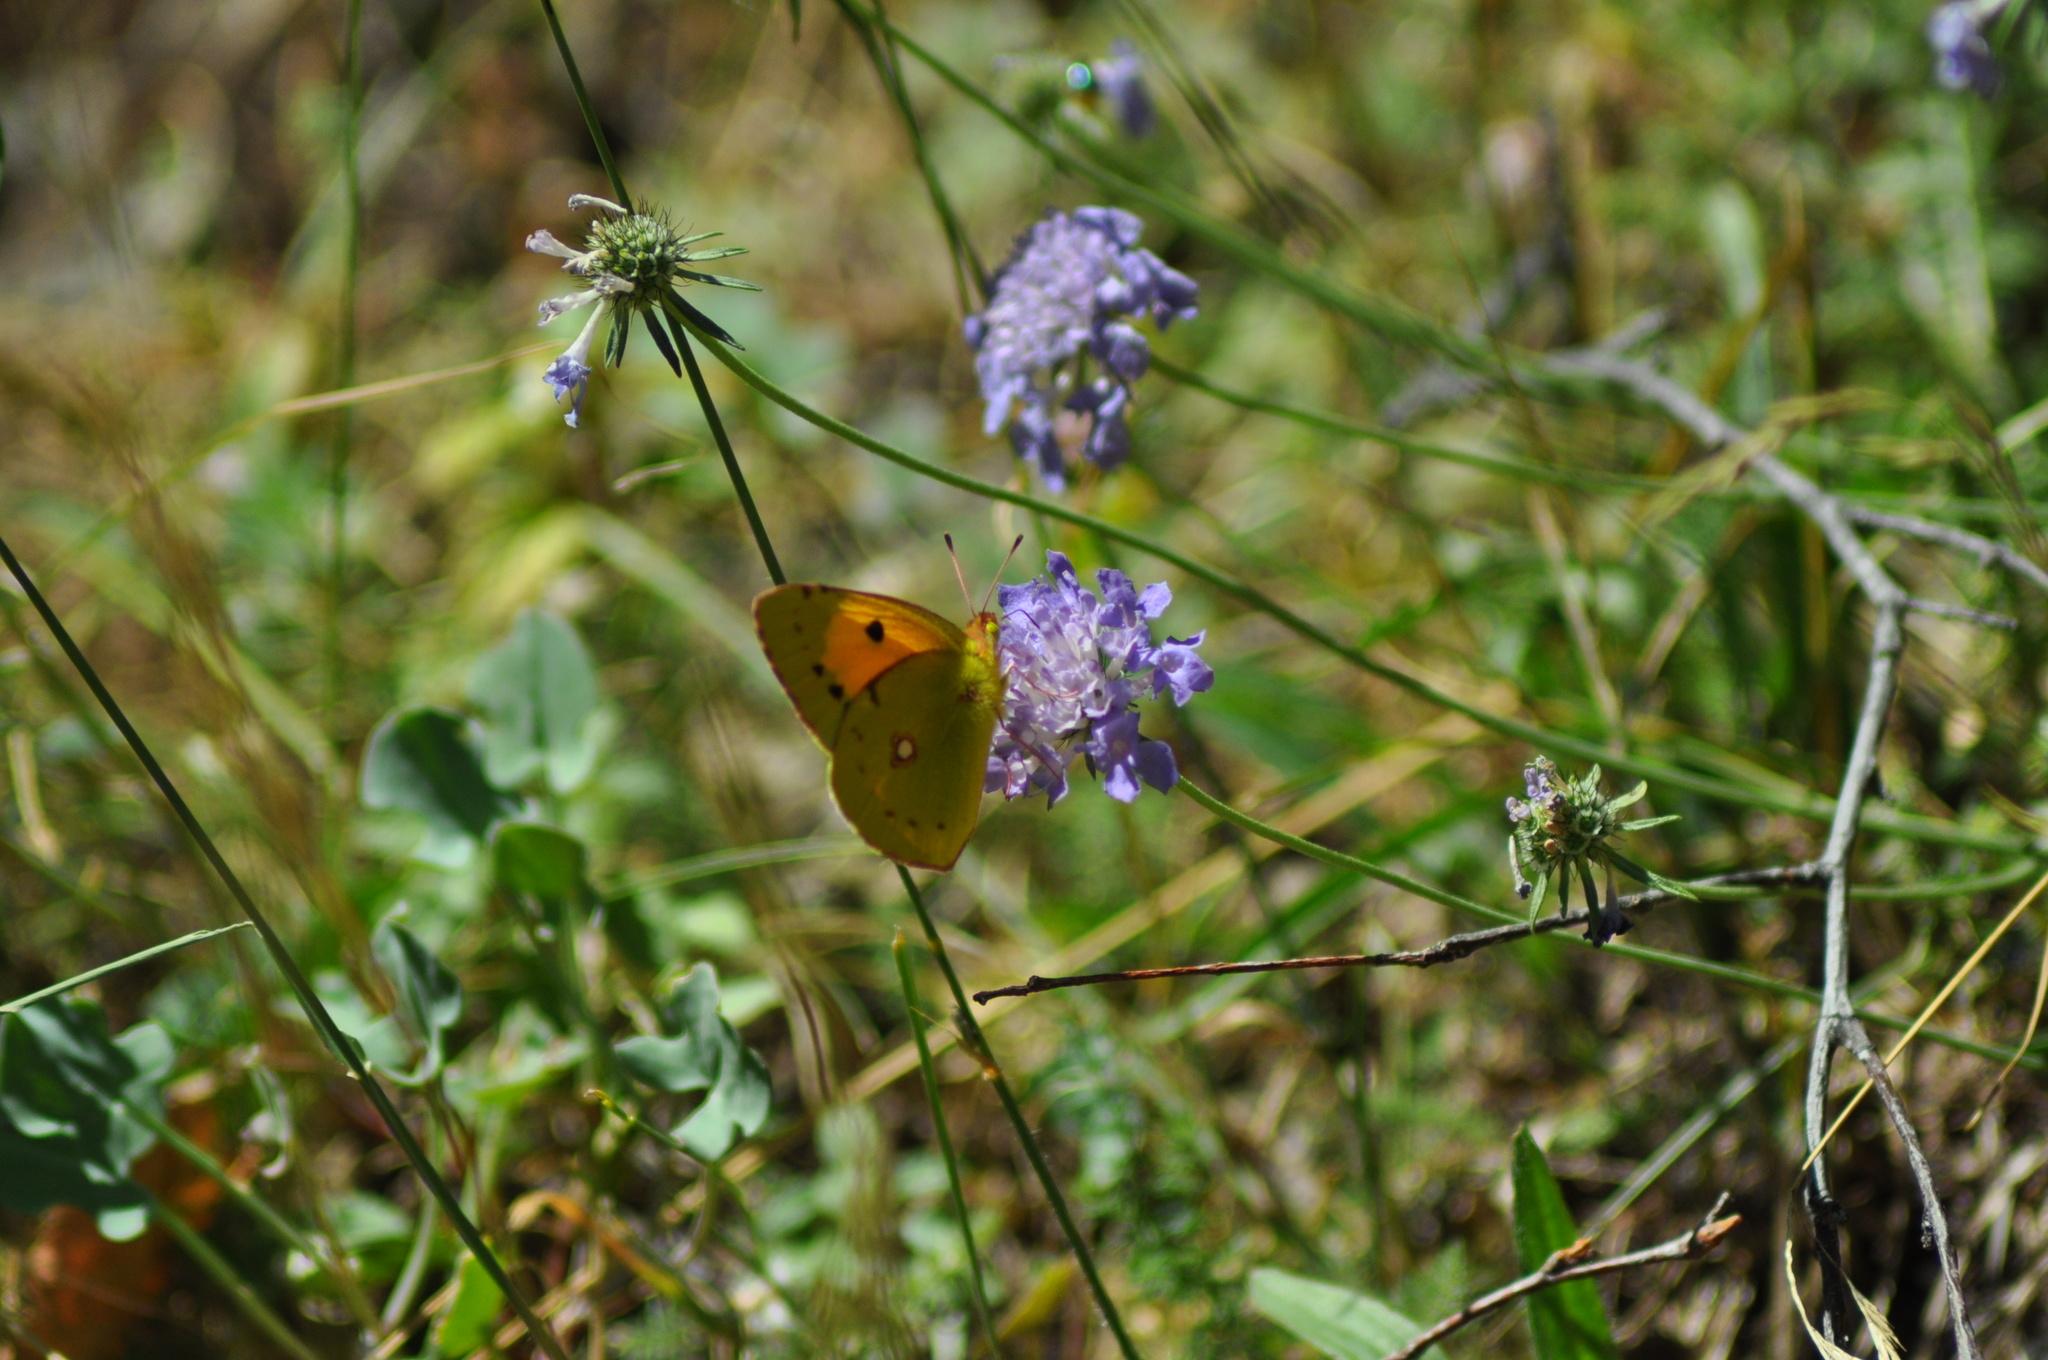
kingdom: Animalia
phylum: Arthropoda
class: Insecta
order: Lepidoptera
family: Pieridae
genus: Colias
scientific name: Colias croceus
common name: Clouded yellow
